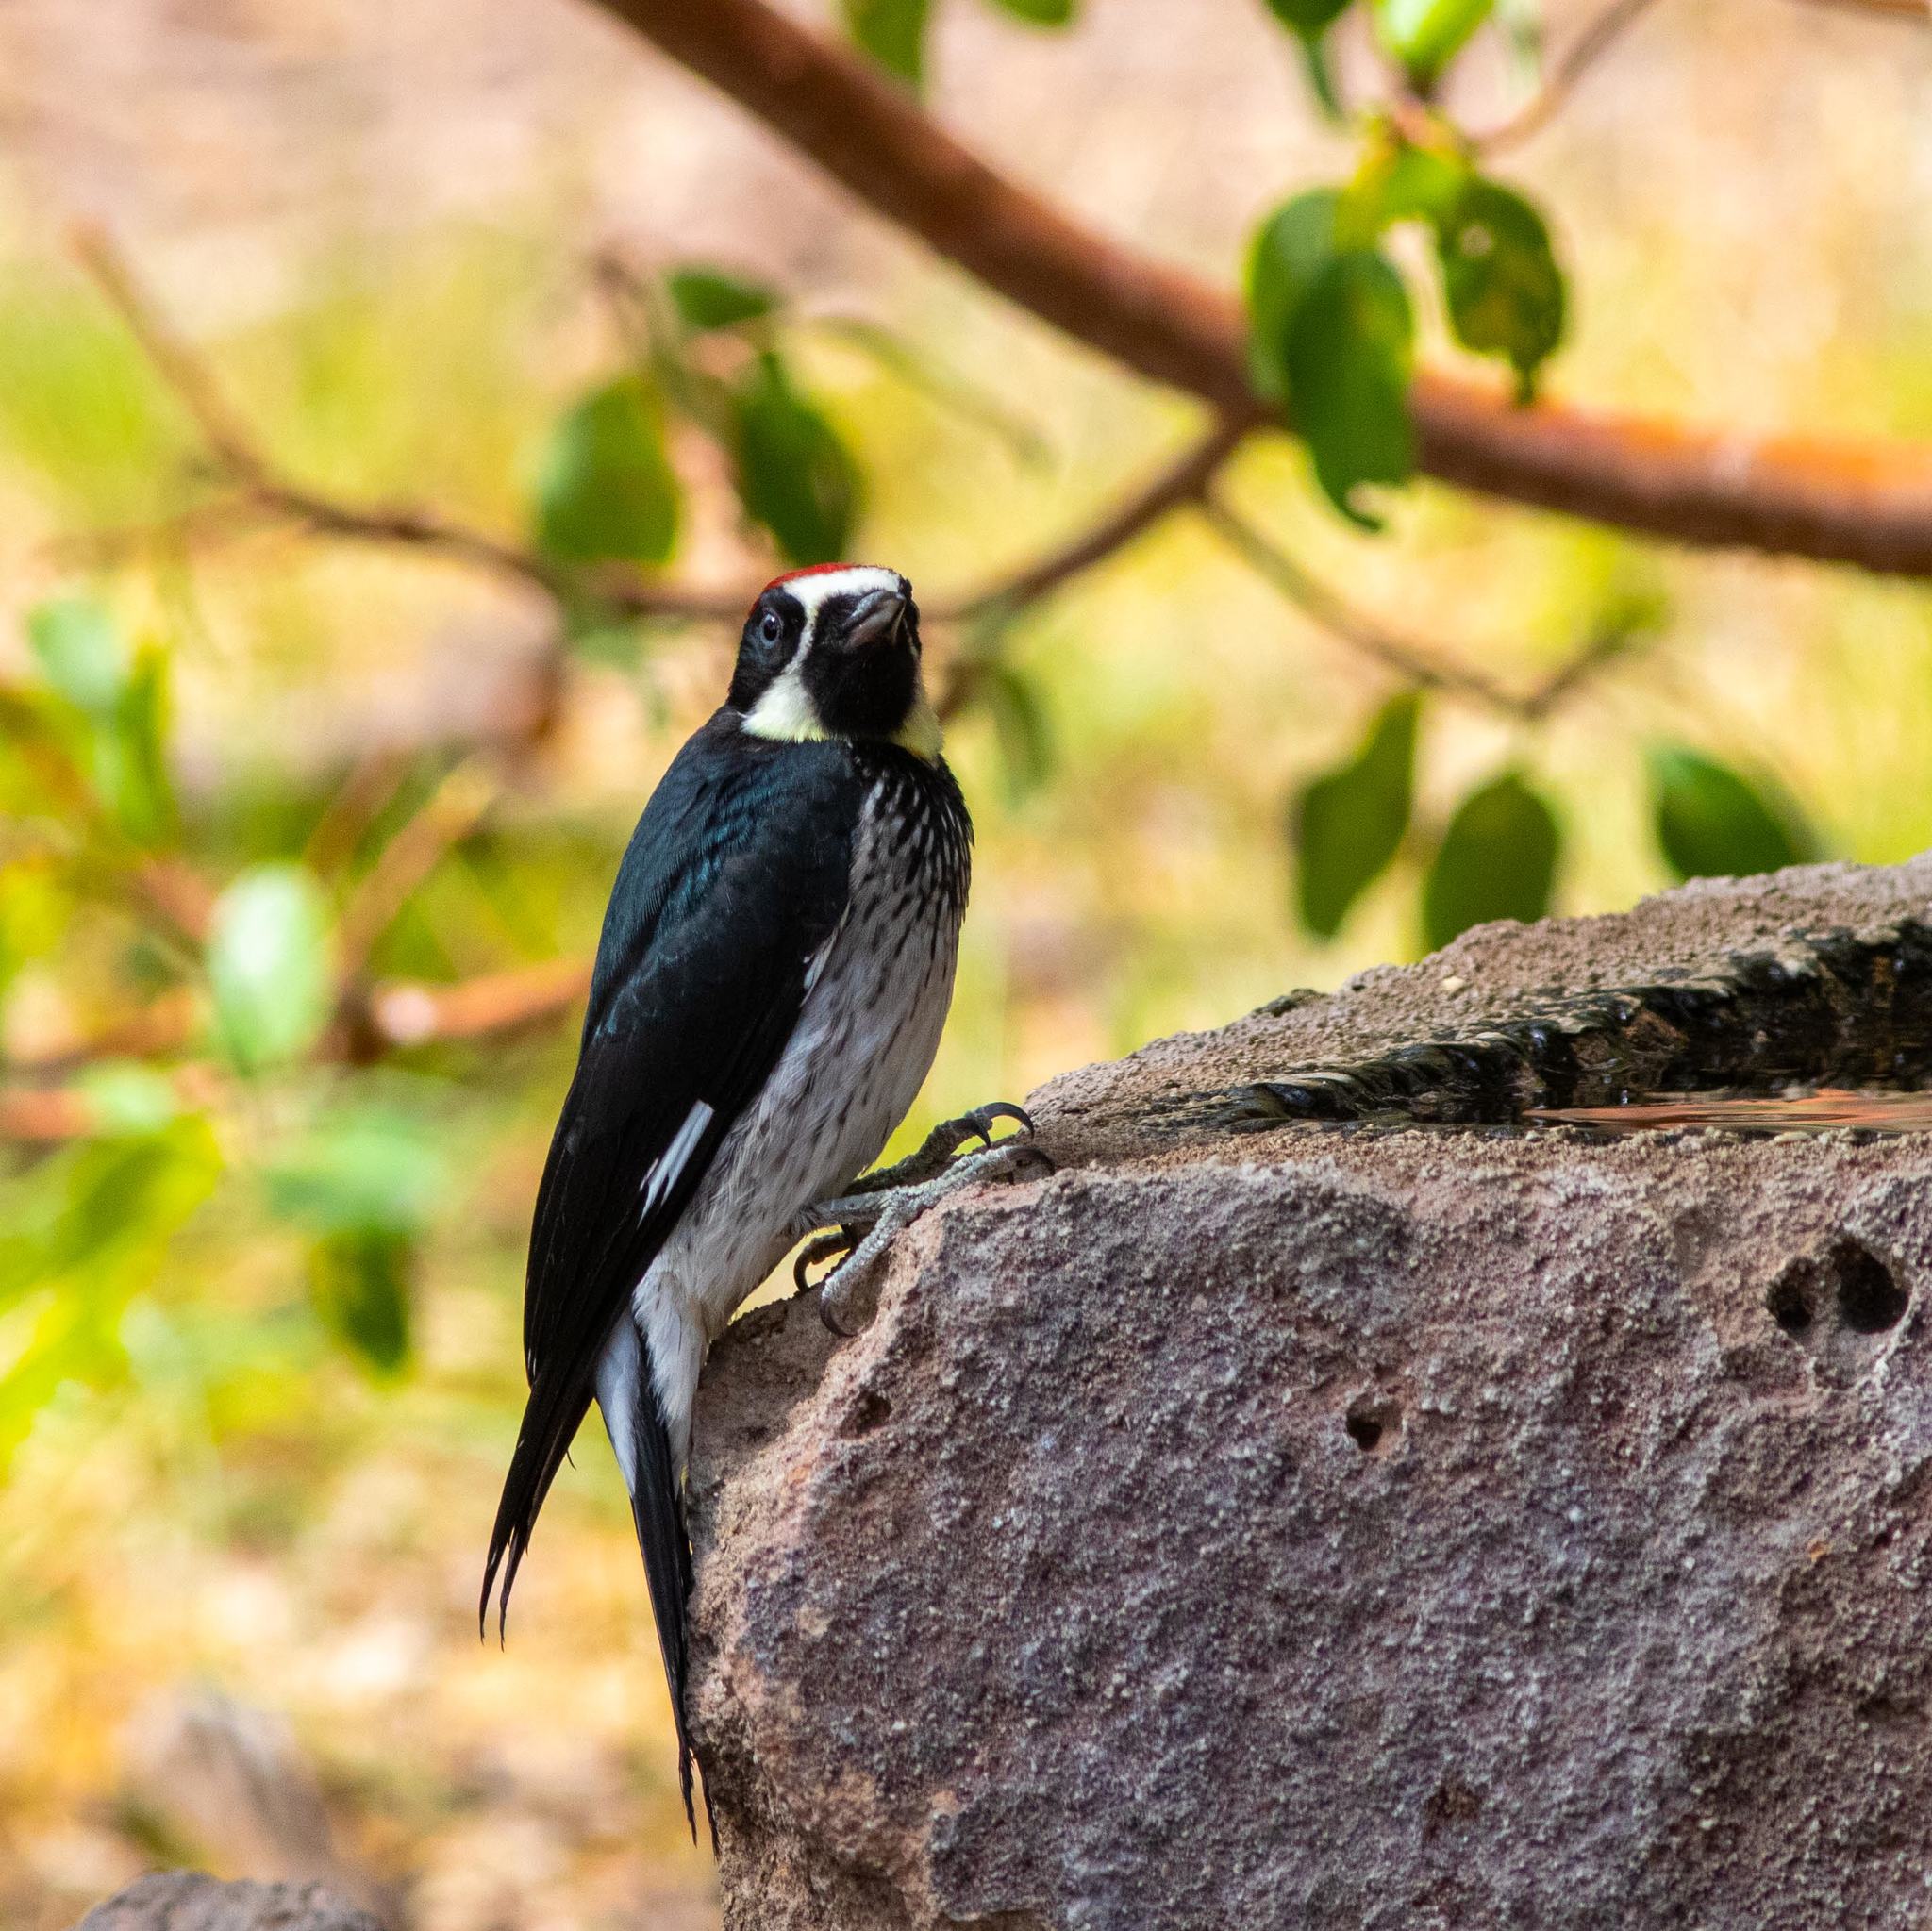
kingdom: Animalia
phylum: Chordata
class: Aves
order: Piciformes
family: Picidae
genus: Melanerpes
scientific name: Melanerpes formicivorus
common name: Acorn woodpecker
